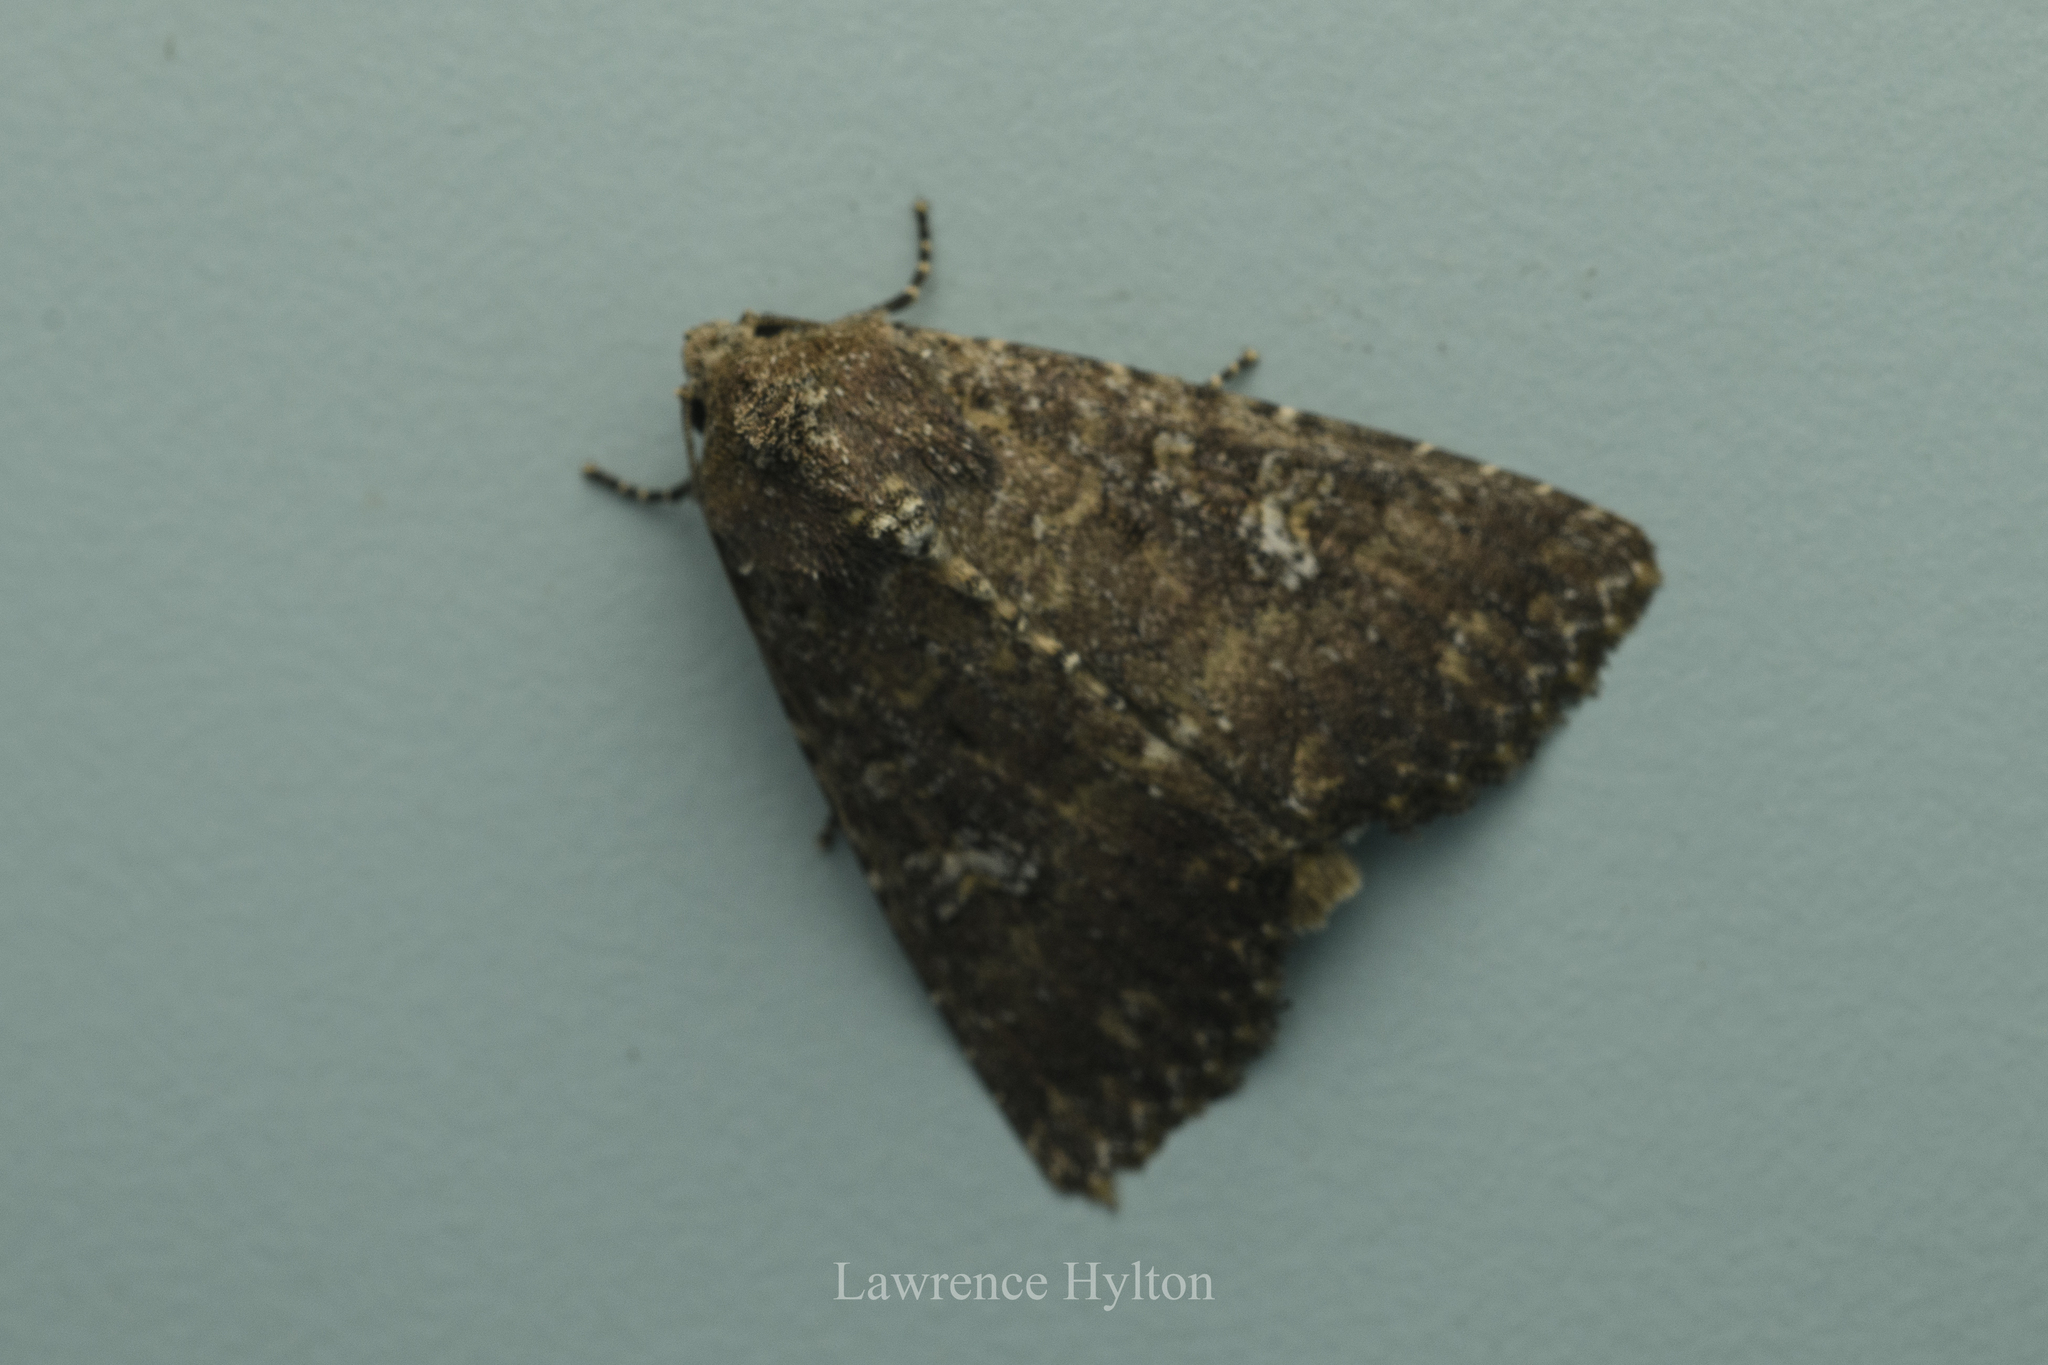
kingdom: Animalia
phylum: Arthropoda
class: Insecta
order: Lepidoptera
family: Noctuidae
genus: Condica
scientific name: Condica illecta
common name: Cutworm
